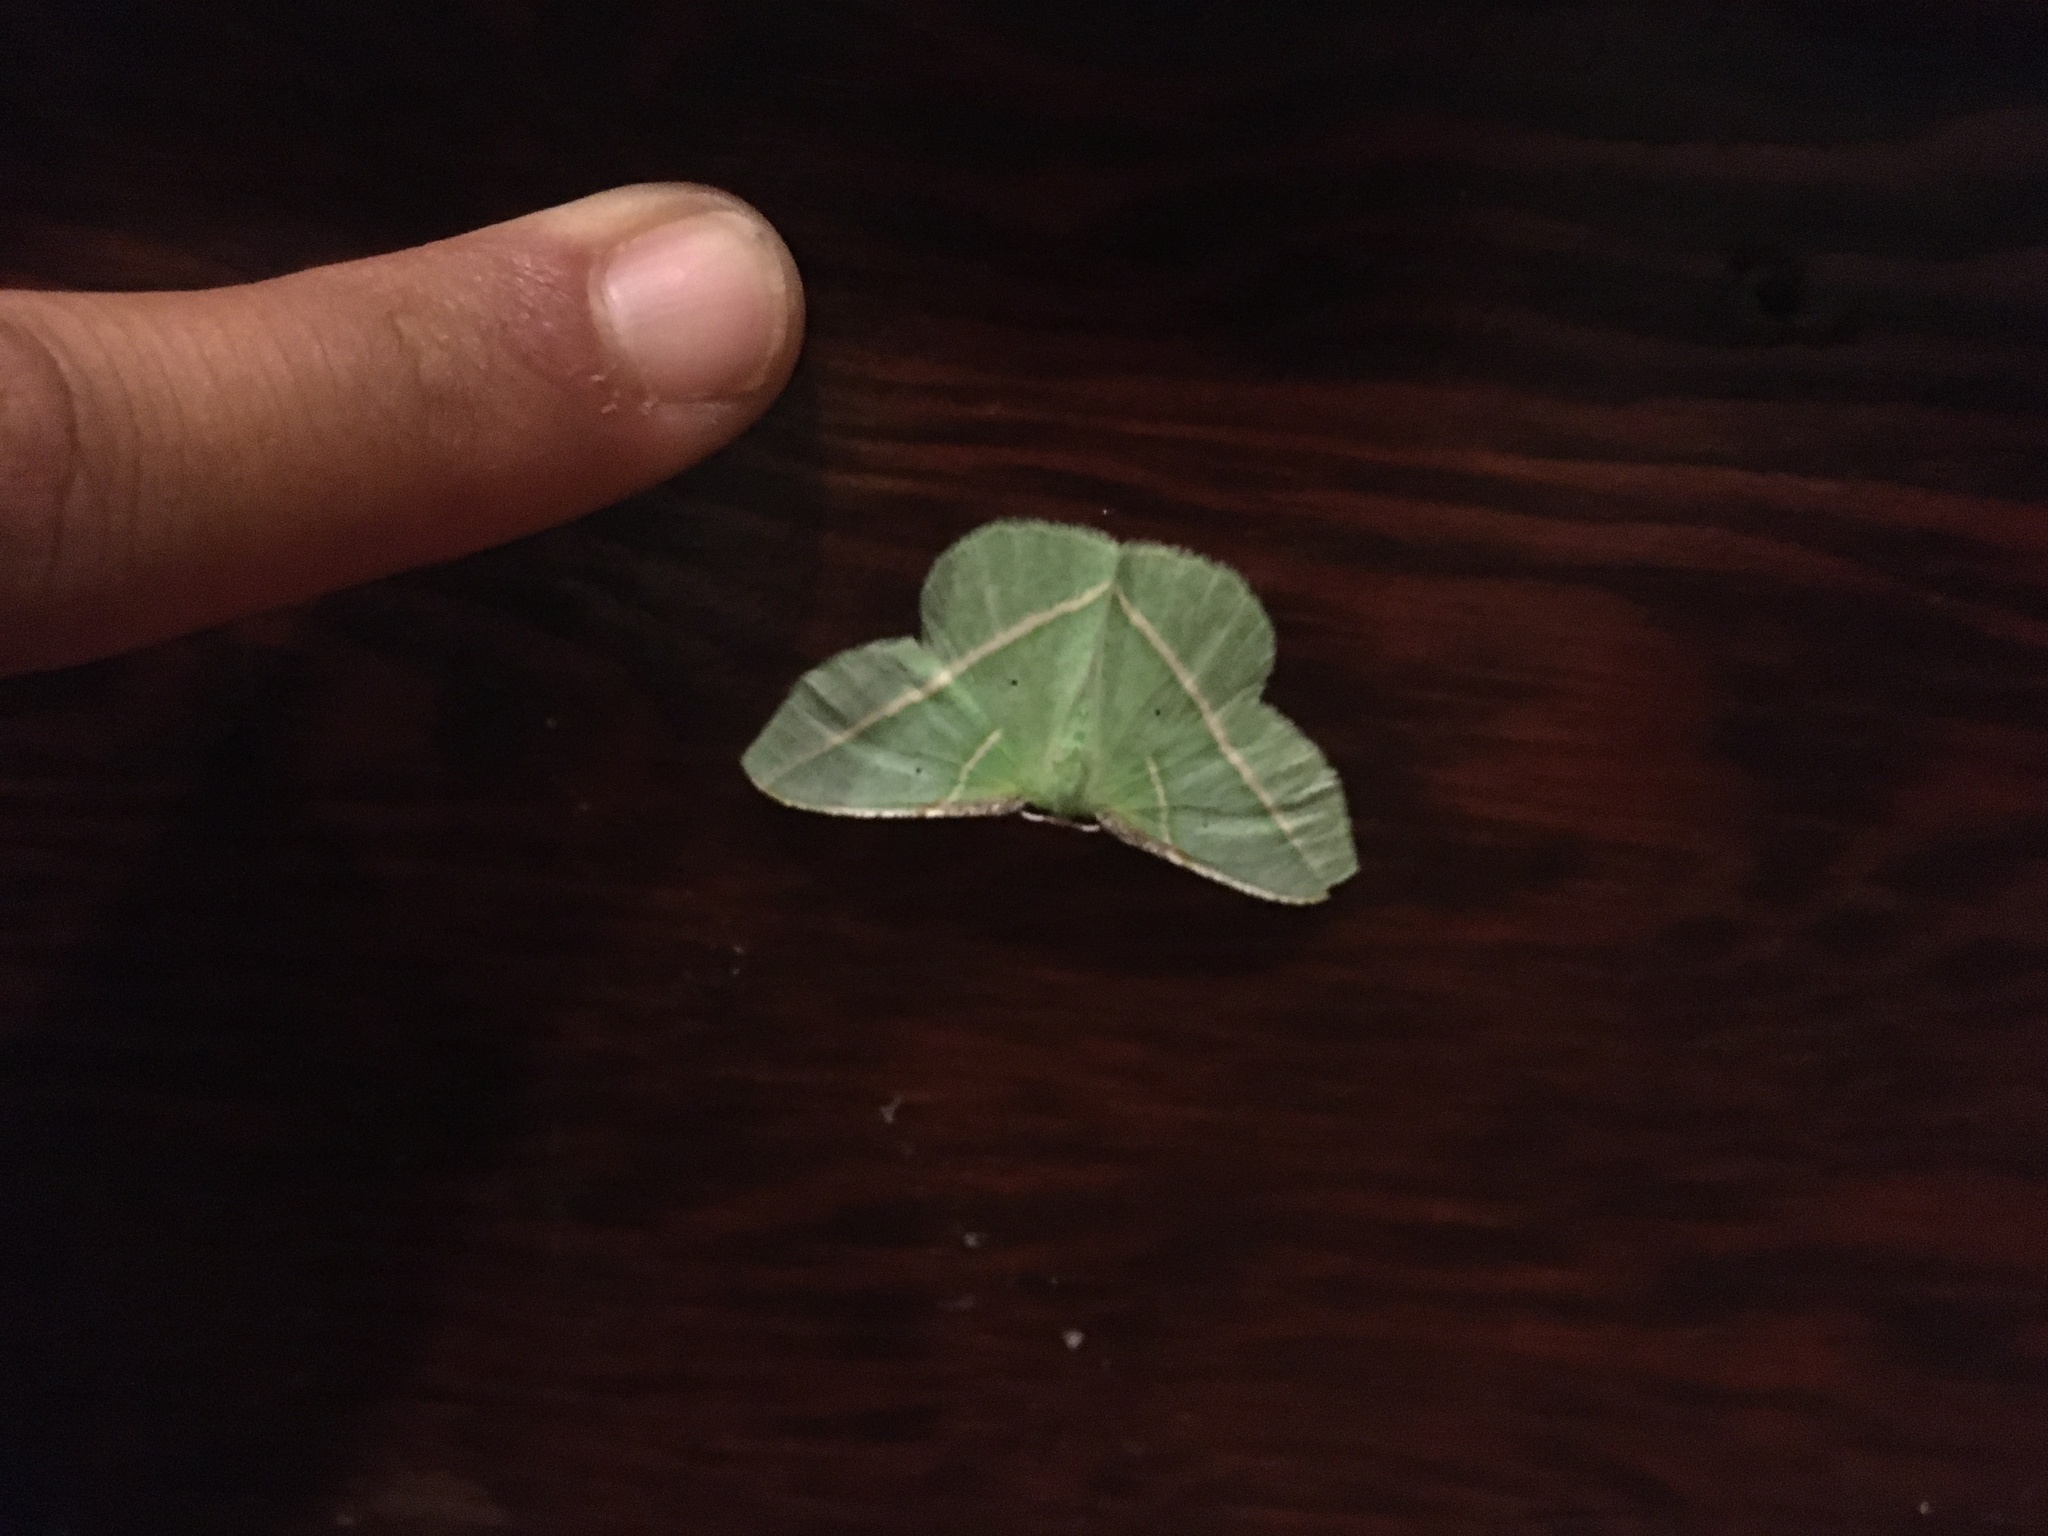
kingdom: Animalia
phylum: Arthropoda
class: Insecta
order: Lepidoptera
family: Geometridae
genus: Dichorda
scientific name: Dichorda illustraria
